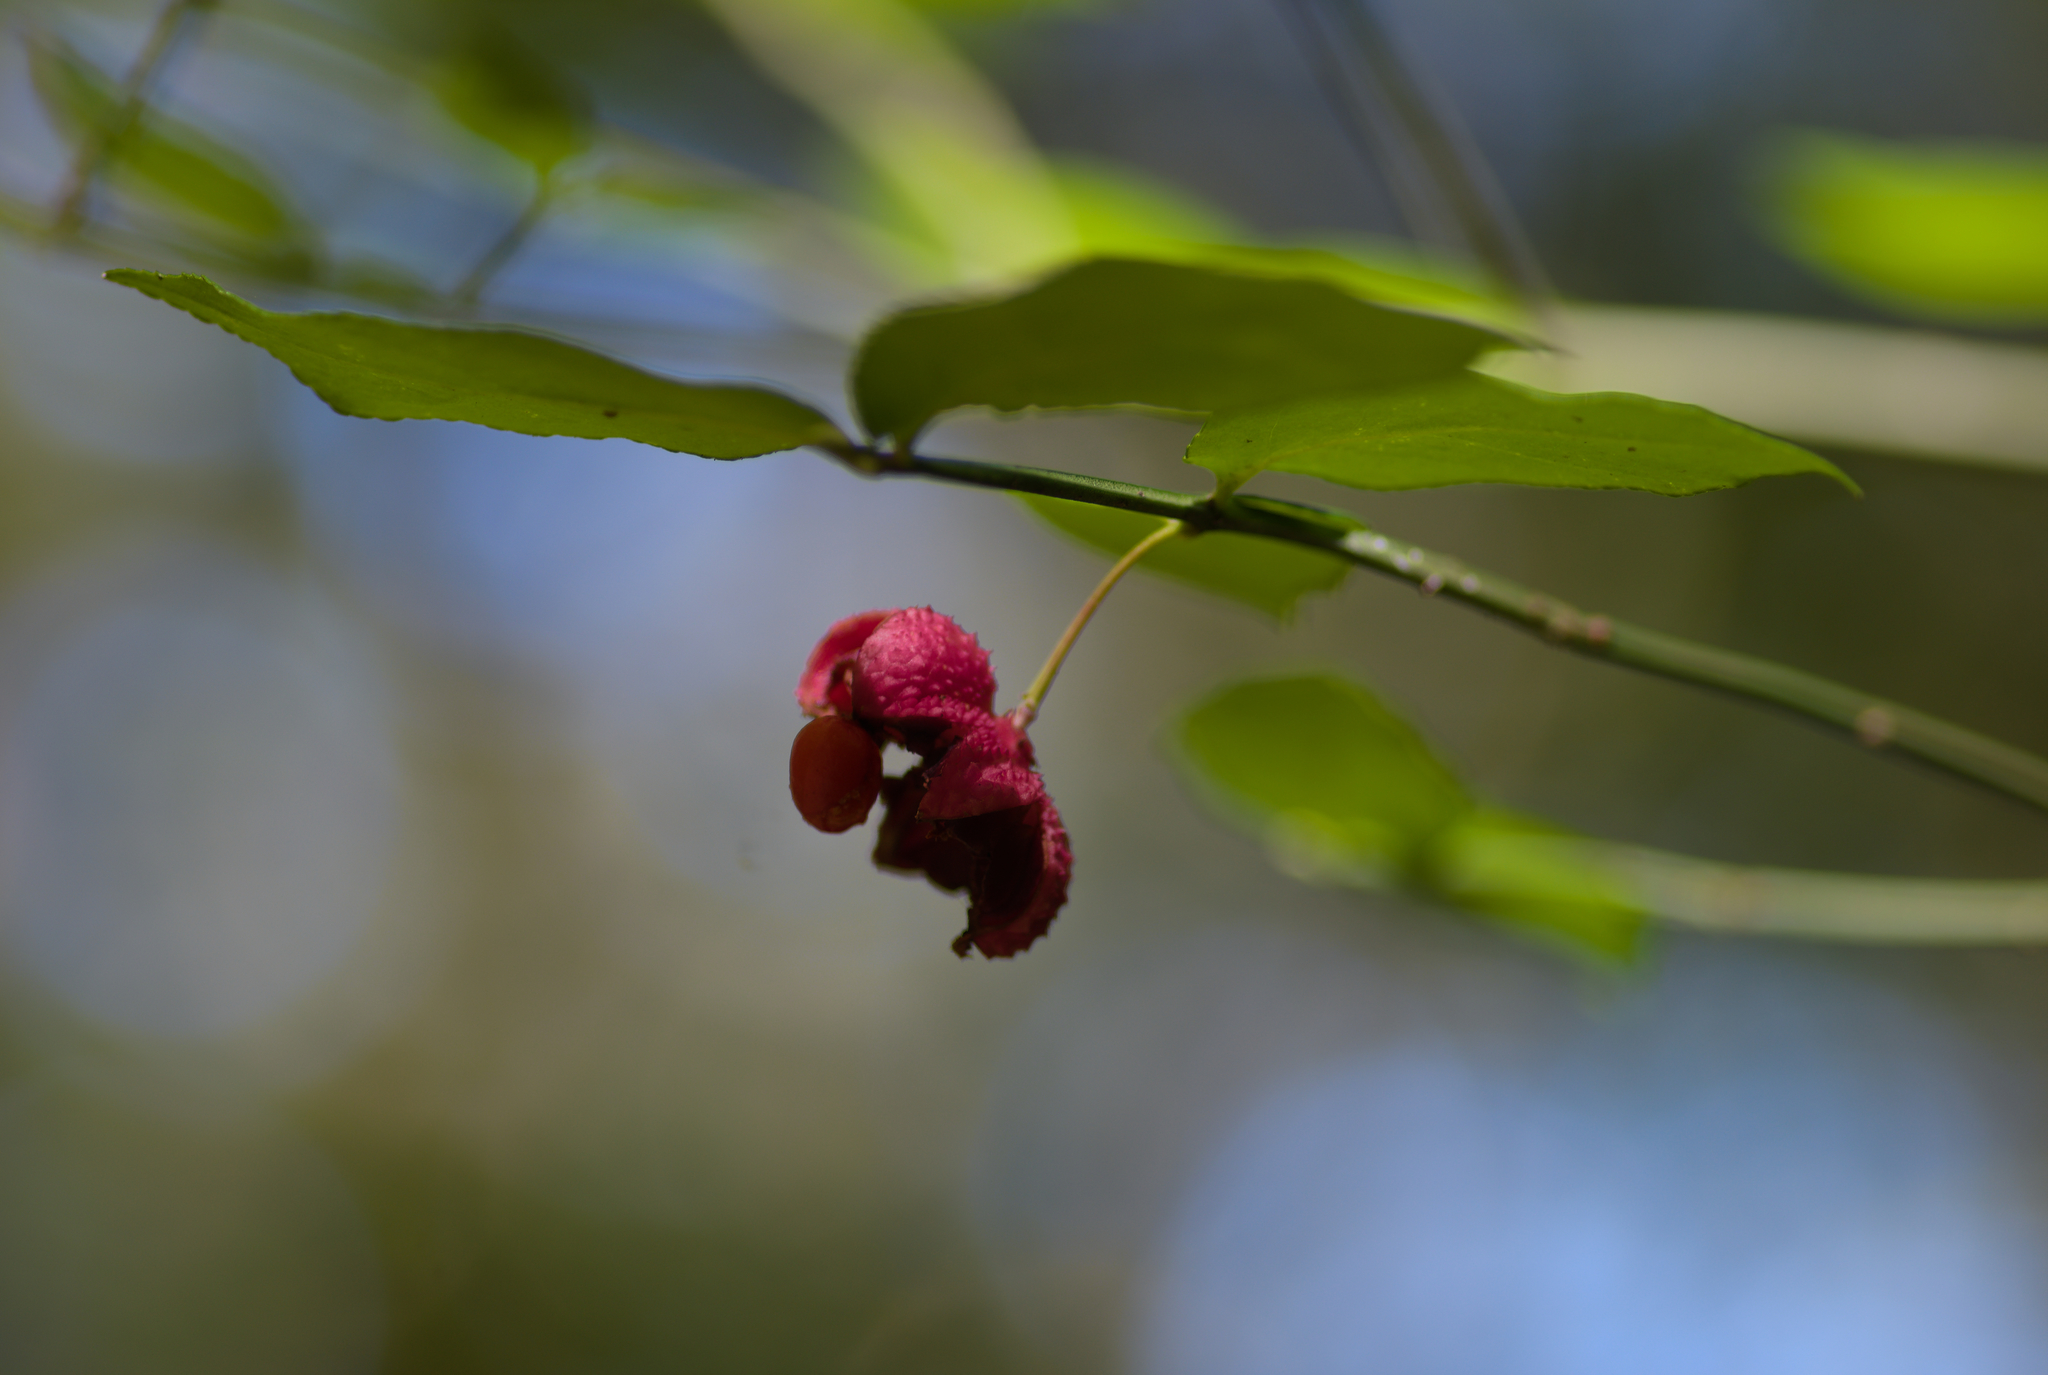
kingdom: Plantae
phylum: Tracheophyta
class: Magnoliopsida
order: Celastrales
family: Celastraceae
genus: Euonymus
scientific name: Euonymus americanus
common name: Bursting-heart
